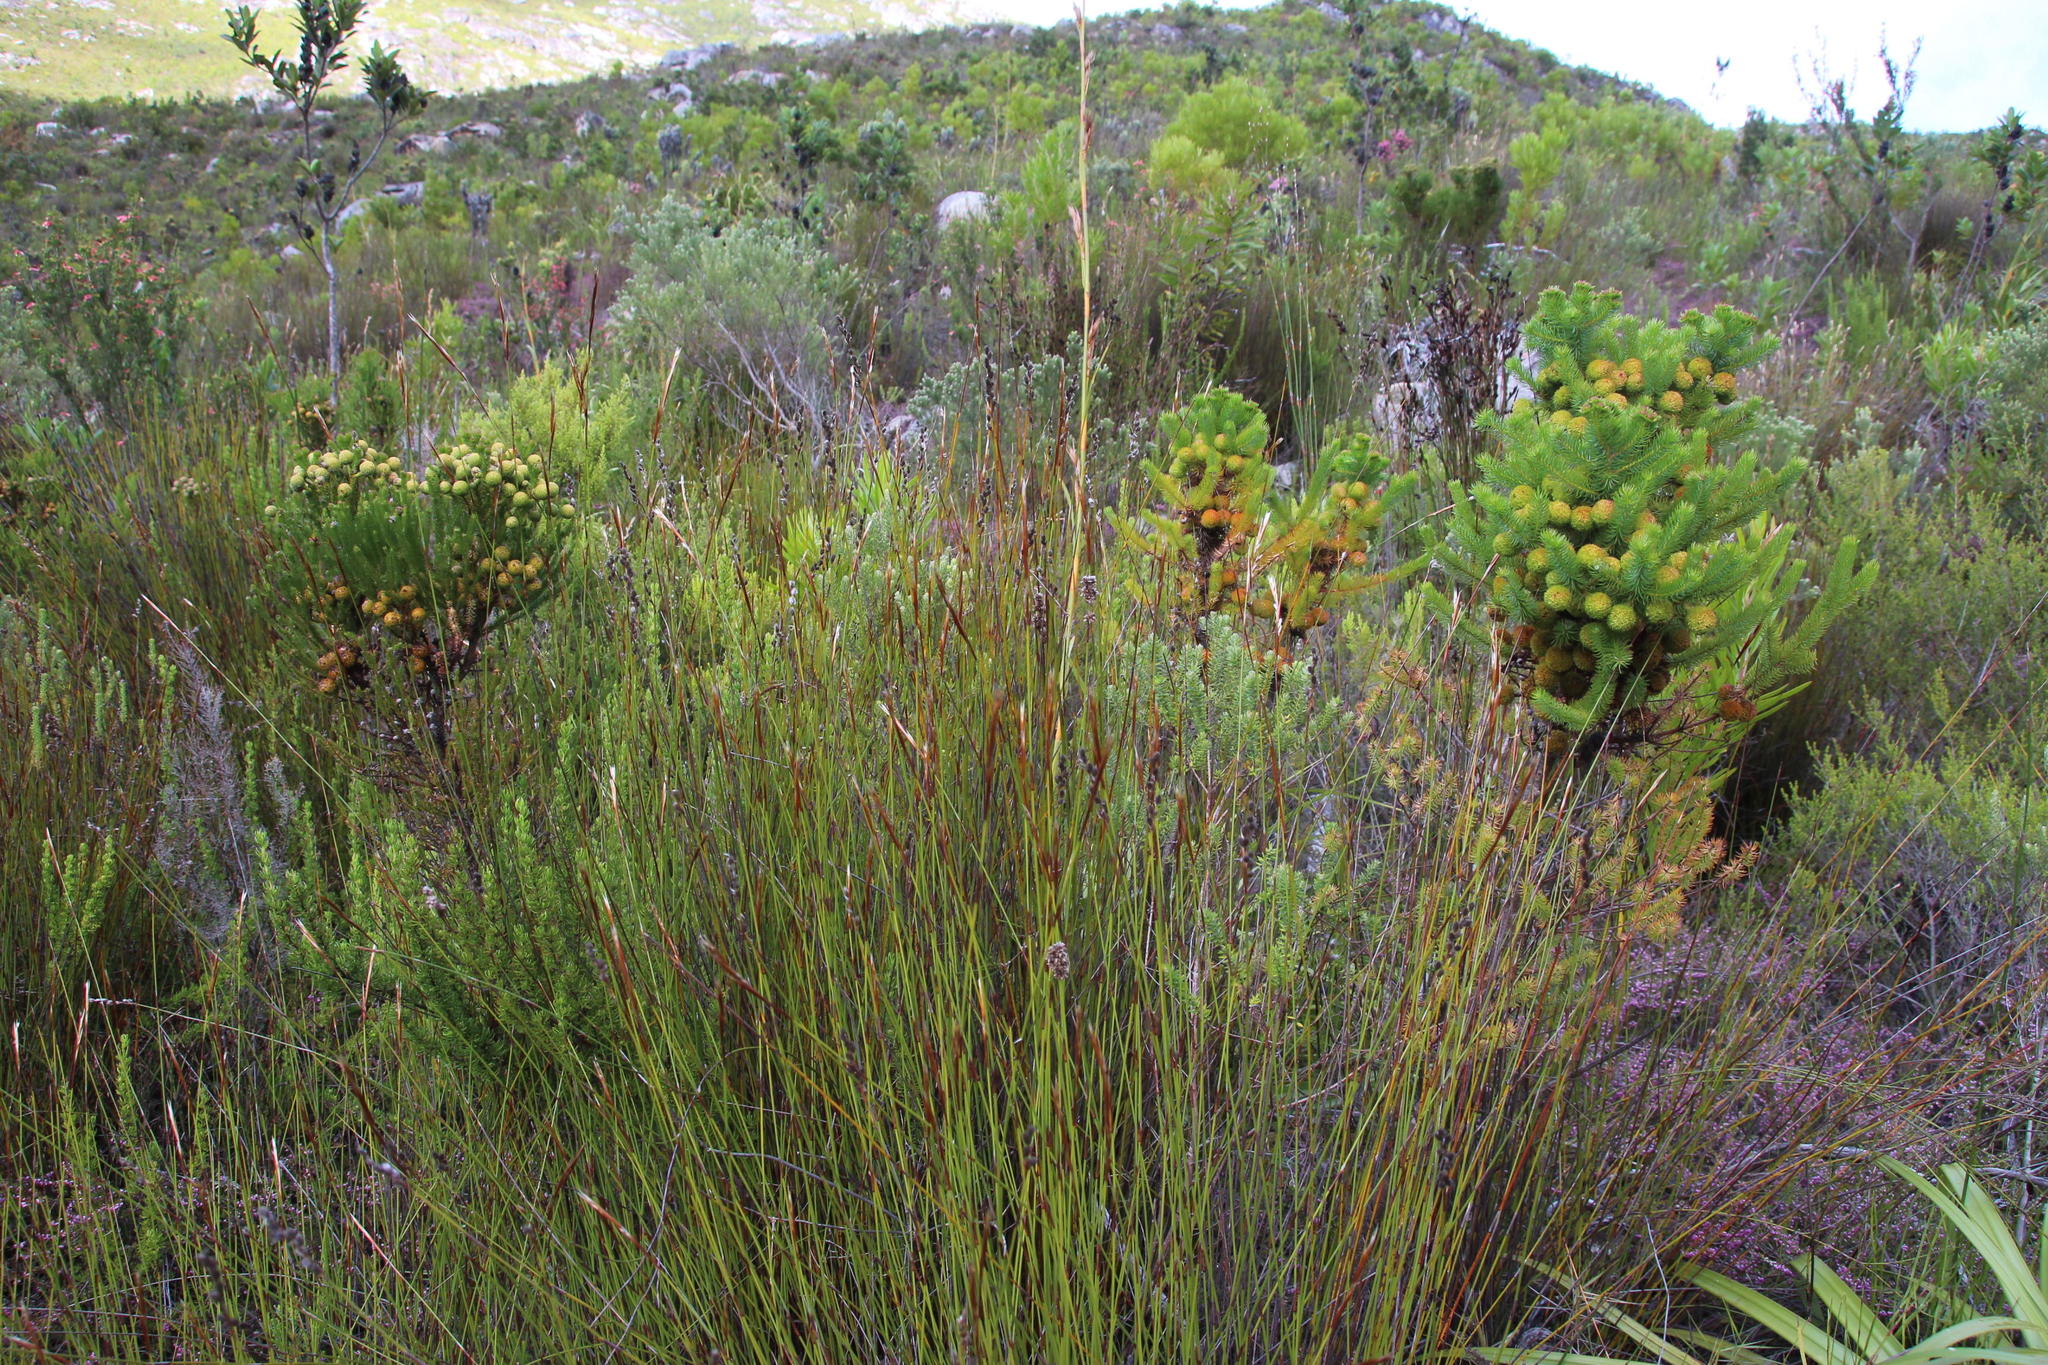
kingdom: Plantae
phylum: Tracheophyta
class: Magnoliopsida
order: Bruniales
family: Bruniaceae
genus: Berzelia
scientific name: Berzelia galpinii
